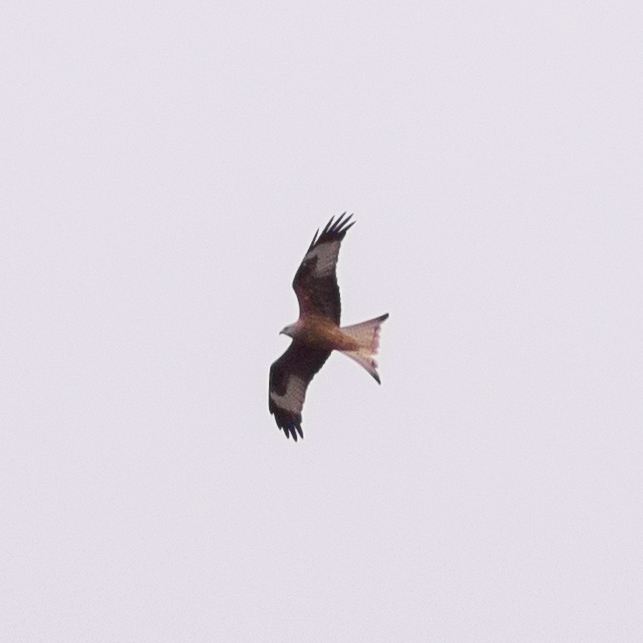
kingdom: Animalia
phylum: Chordata
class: Aves
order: Accipitriformes
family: Accipitridae
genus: Milvus
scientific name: Milvus milvus
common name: Red kite
